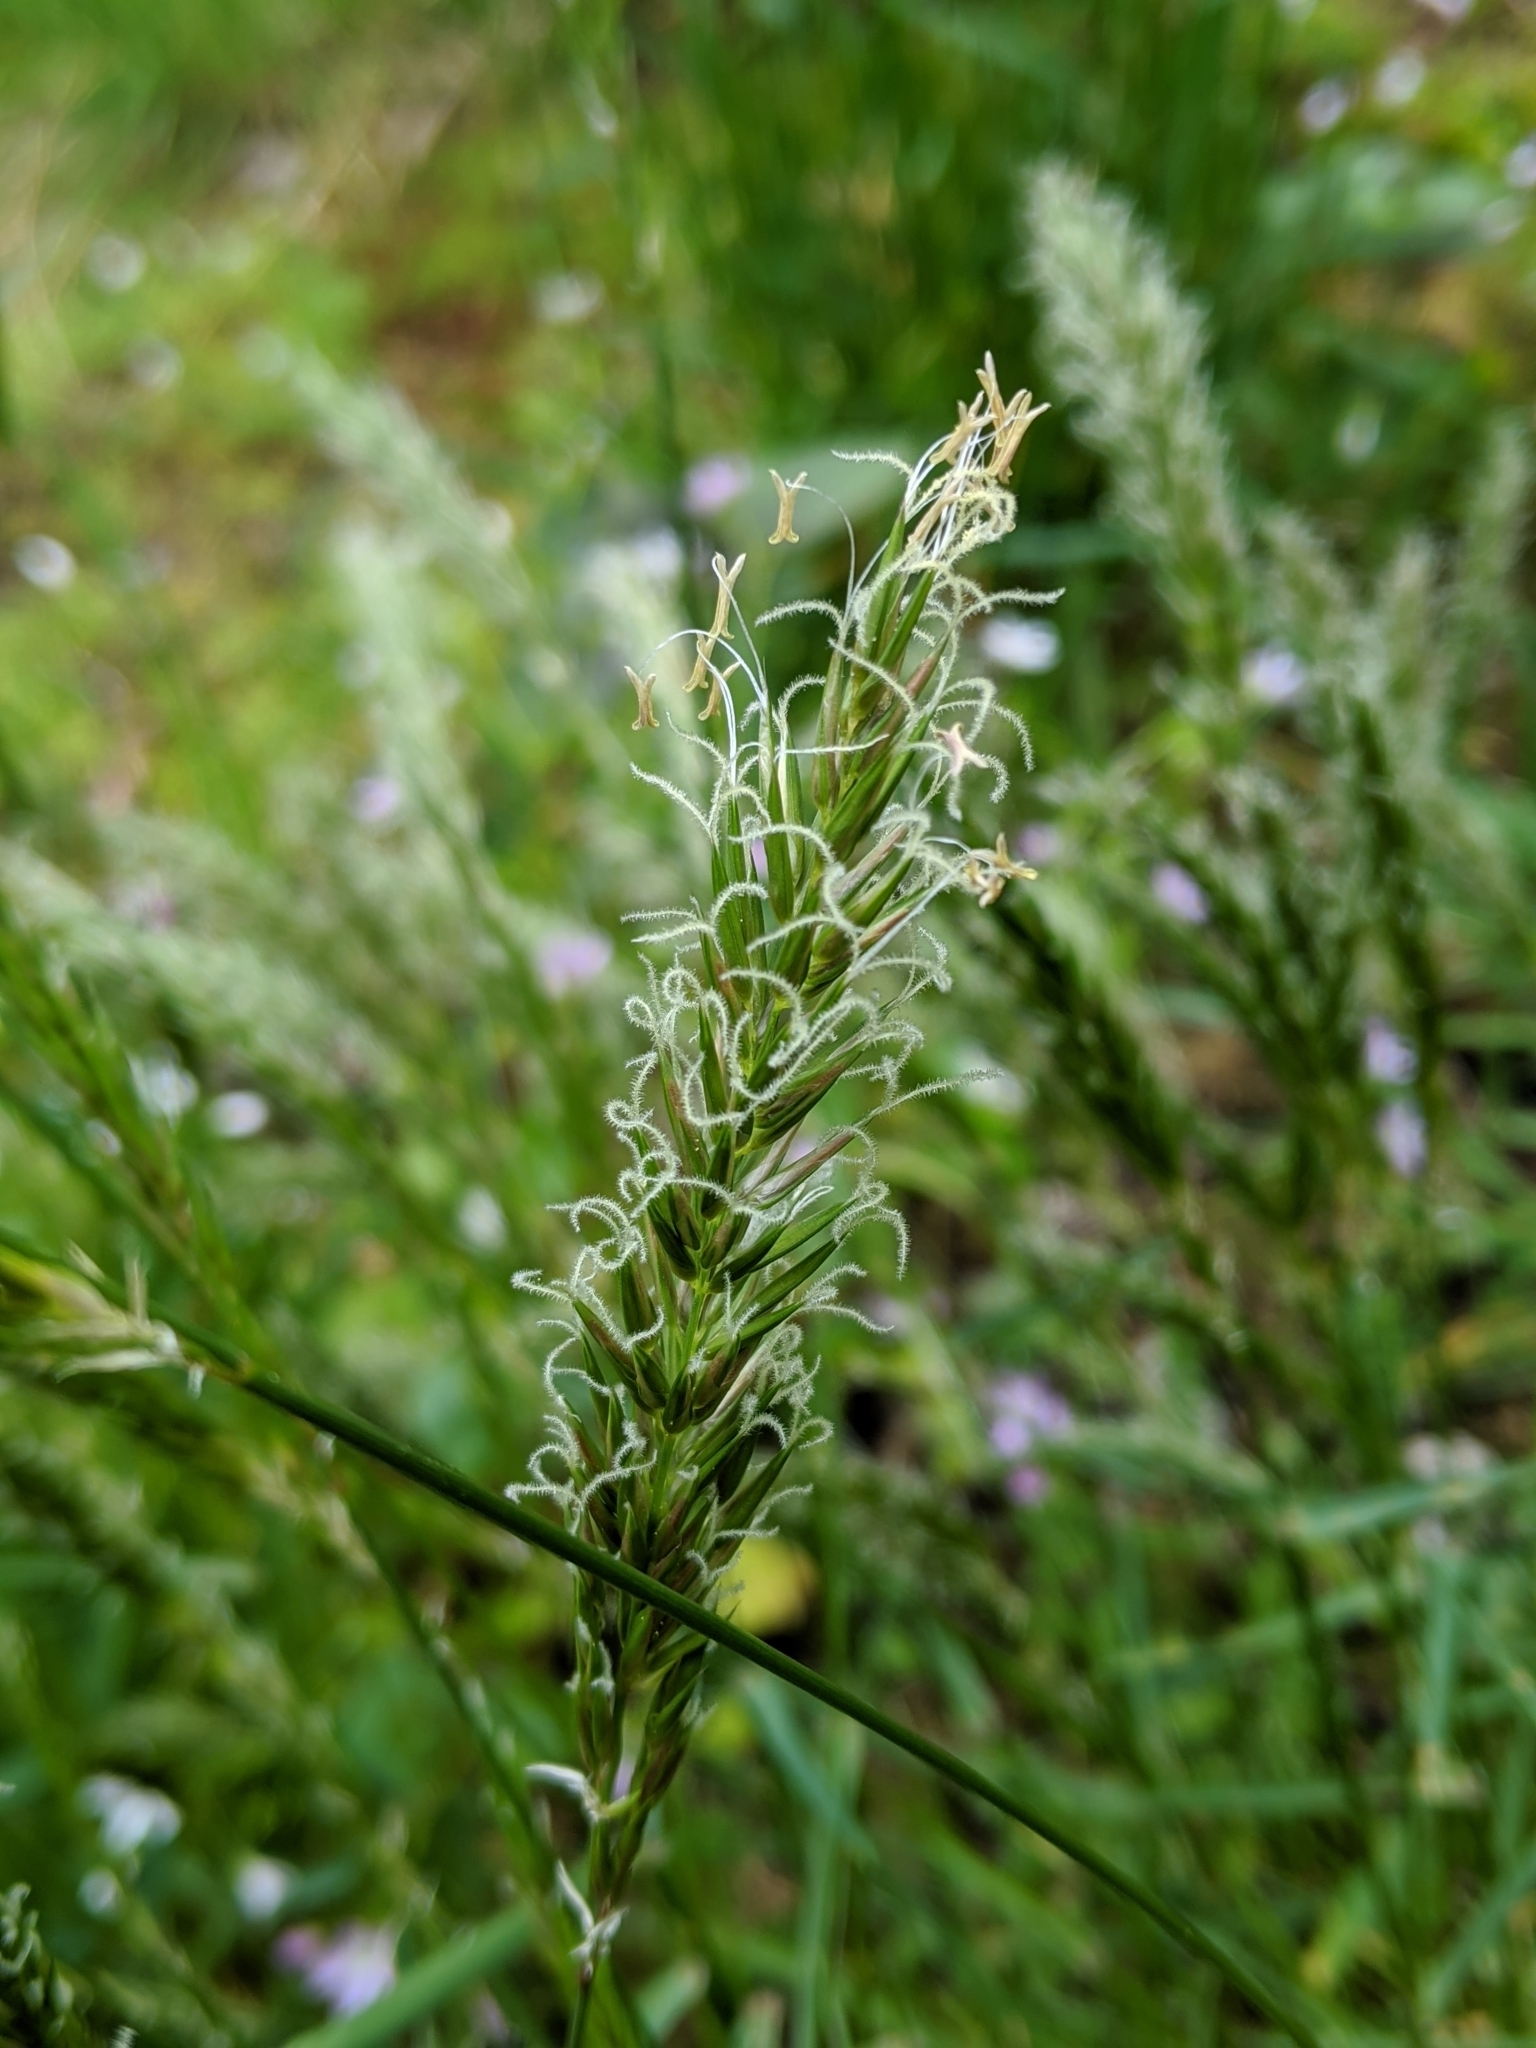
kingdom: Plantae
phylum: Tracheophyta
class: Liliopsida
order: Poales
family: Poaceae
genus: Anthoxanthum
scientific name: Anthoxanthum odoratum
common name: Sweet vernalgrass
